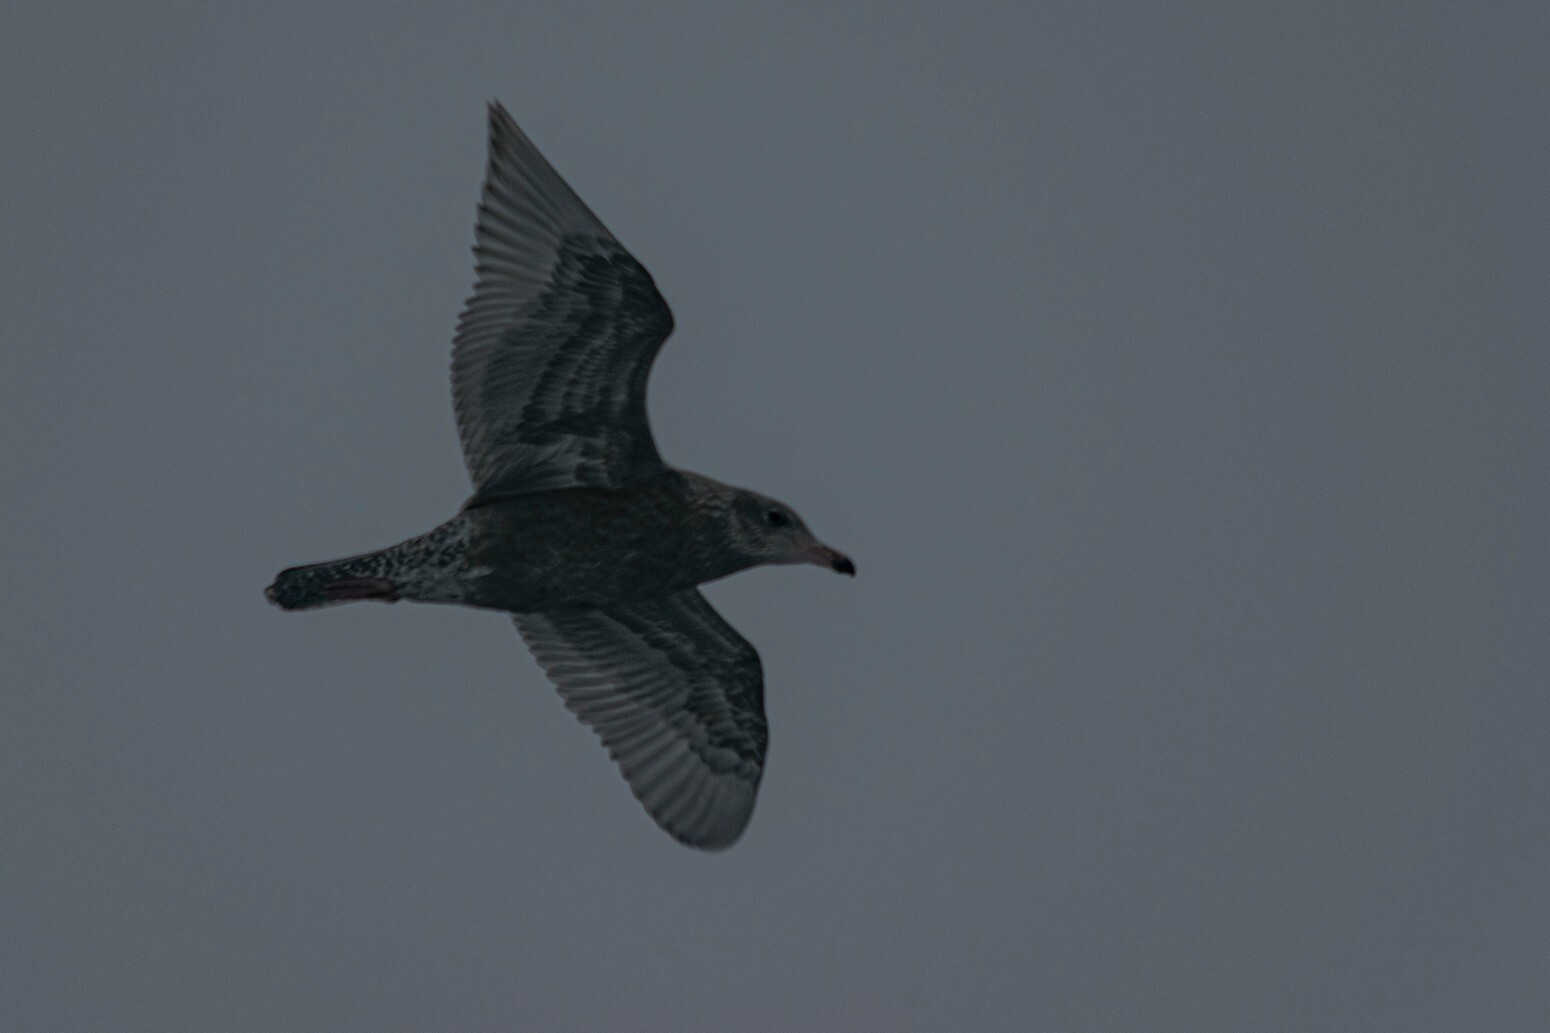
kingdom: Animalia
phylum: Chordata
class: Aves
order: Charadriiformes
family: Laridae
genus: Larus
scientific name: Larus hyperboreus
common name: Glaucous gull
